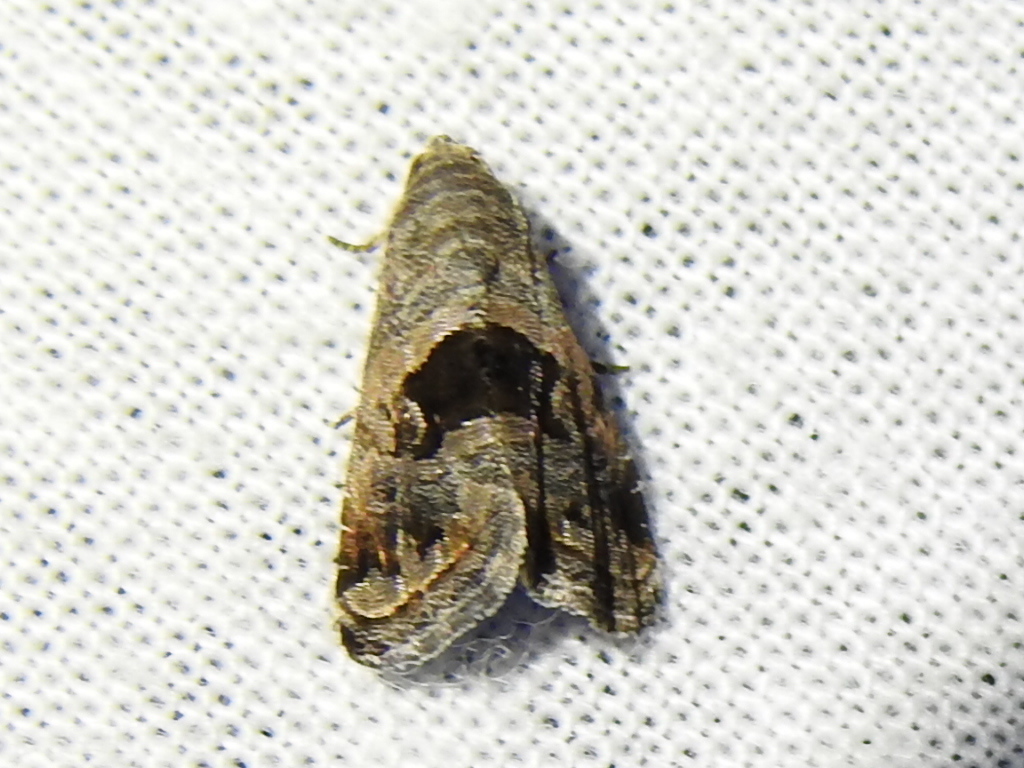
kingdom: Animalia
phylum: Arthropoda
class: Insecta
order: Lepidoptera
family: Noctuidae
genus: Tripudia
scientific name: Tripudia quadrifera
